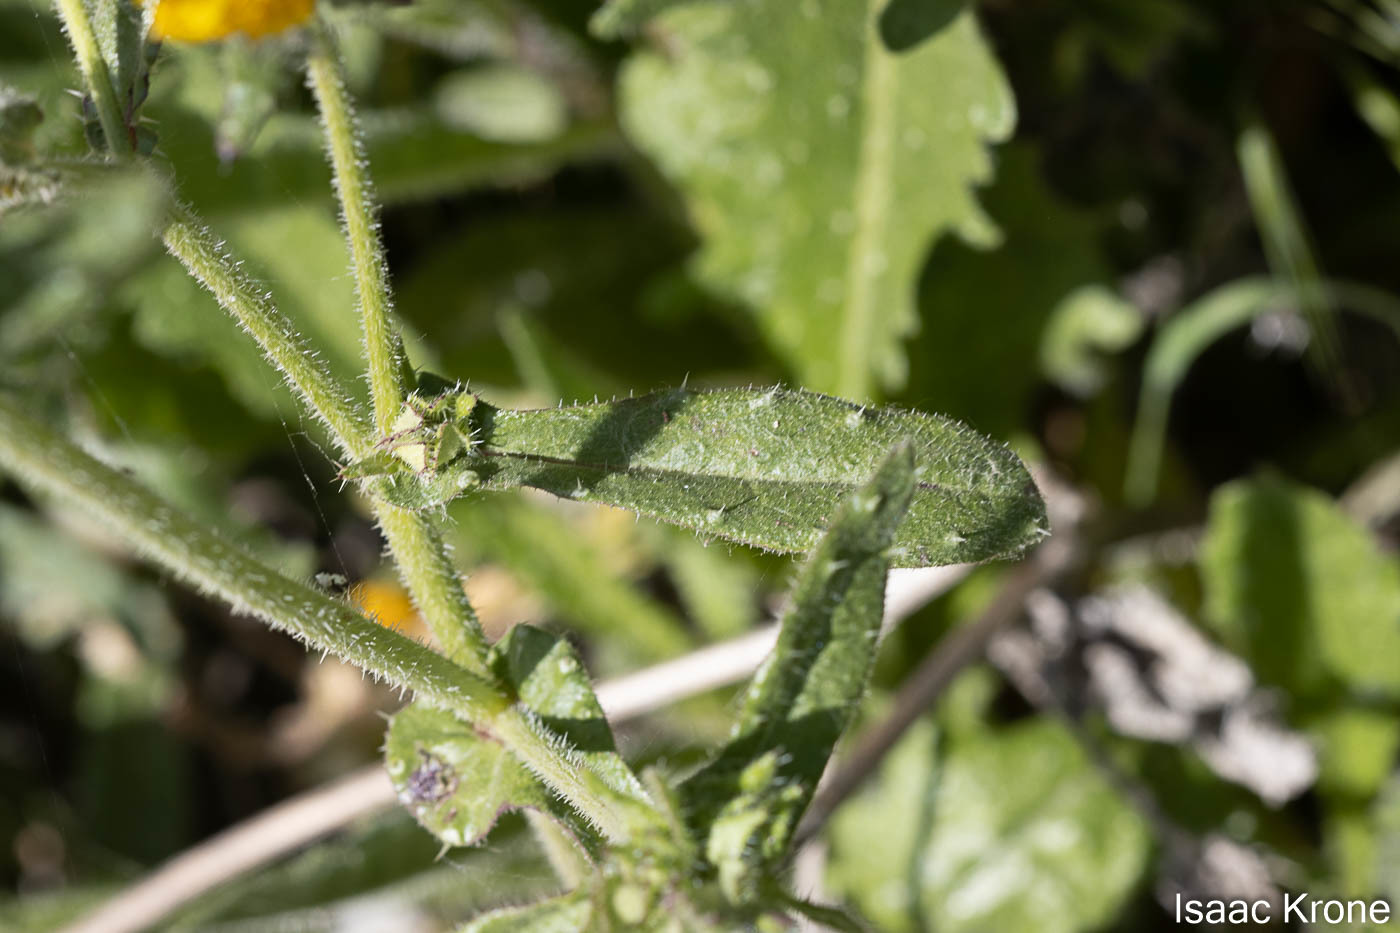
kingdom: Plantae
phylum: Tracheophyta
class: Magnoliopsida
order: Asterales
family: Asteraceae
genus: Helminthotheca
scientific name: Helminthotheca echioides
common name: Ox-tongue
